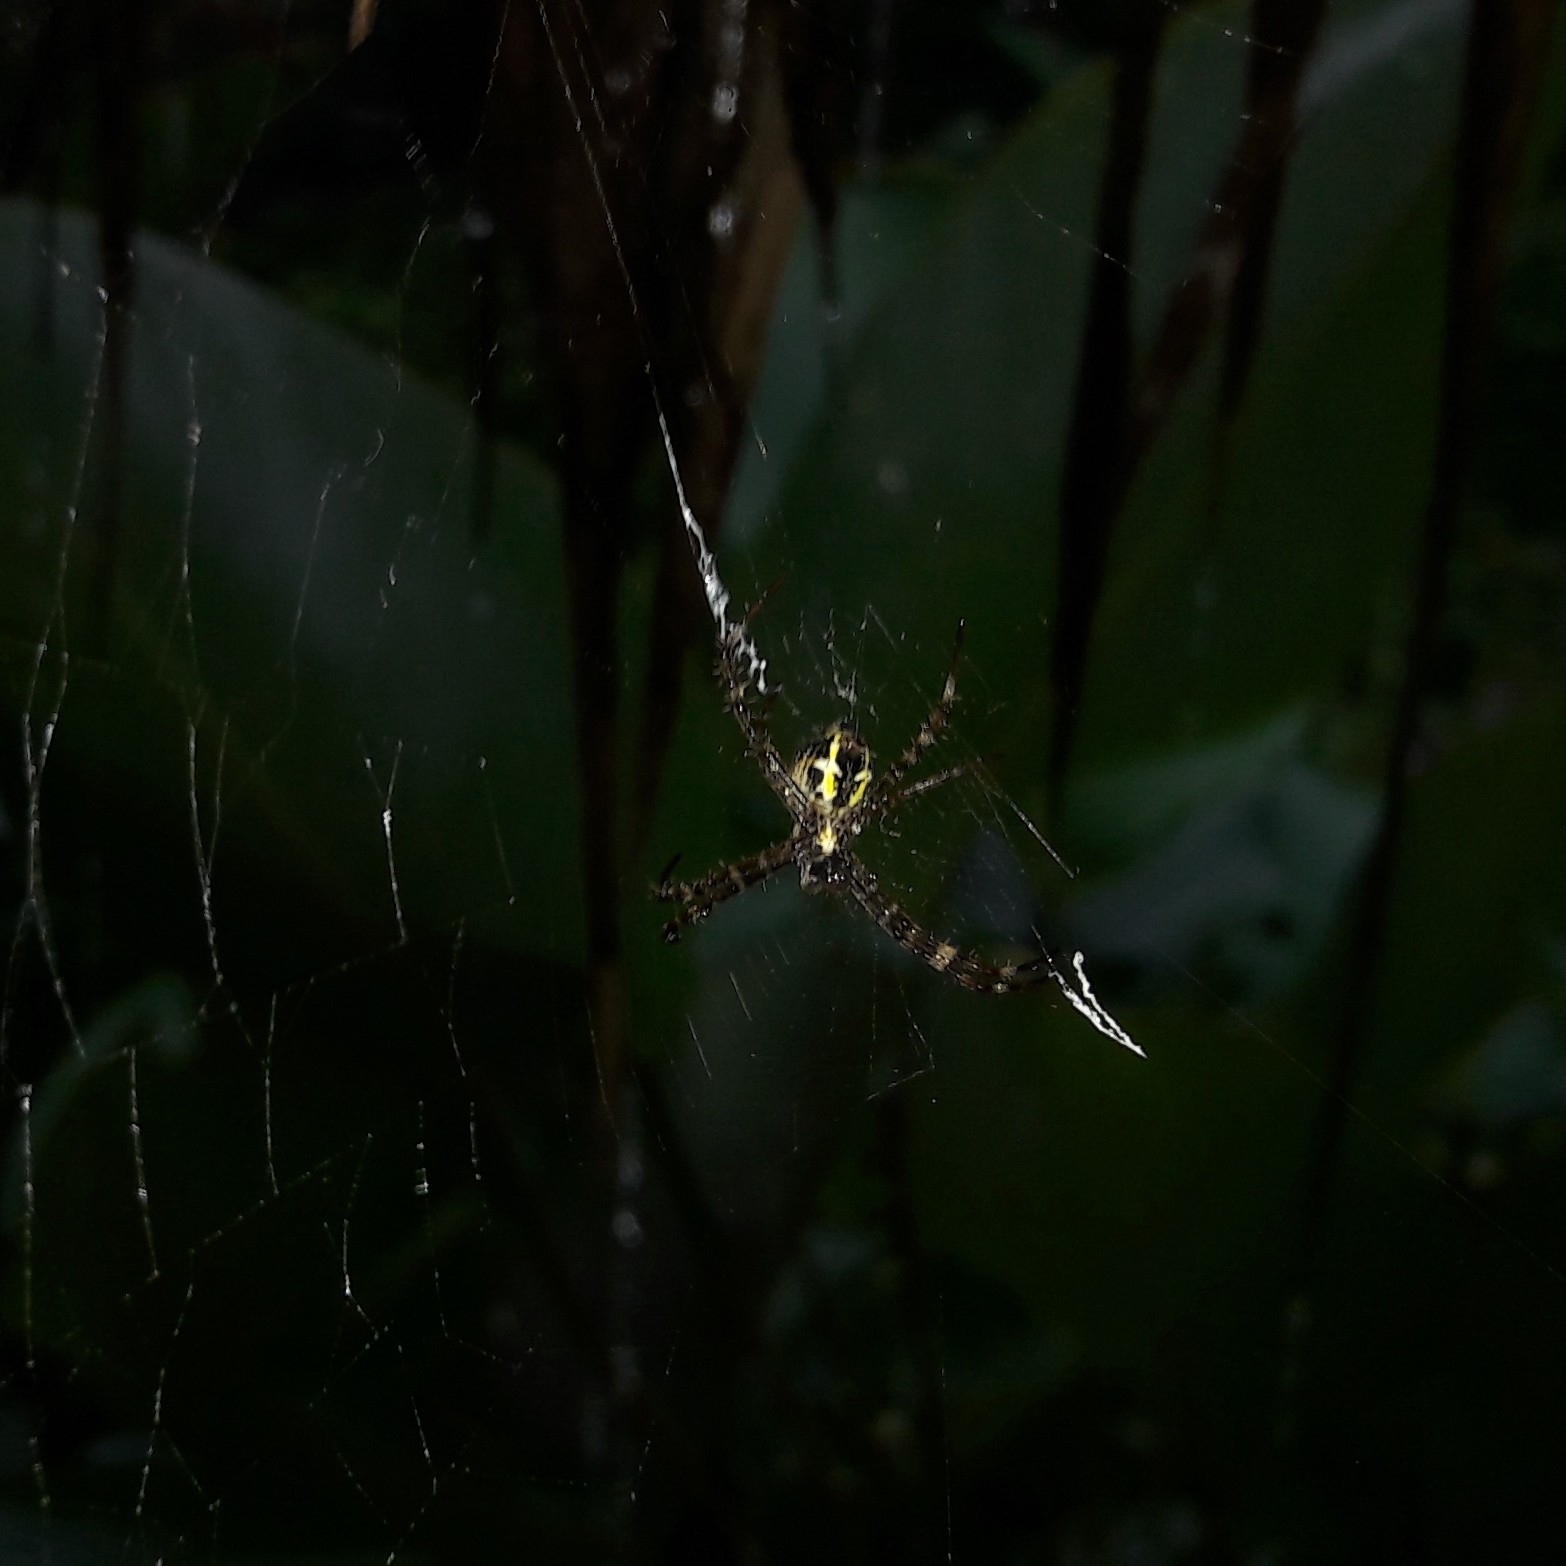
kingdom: Animalia
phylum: Arthropoda
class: Arachnida
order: Araneae
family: Araneidae
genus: Argiope
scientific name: Argiope appensa
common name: Garden spider
